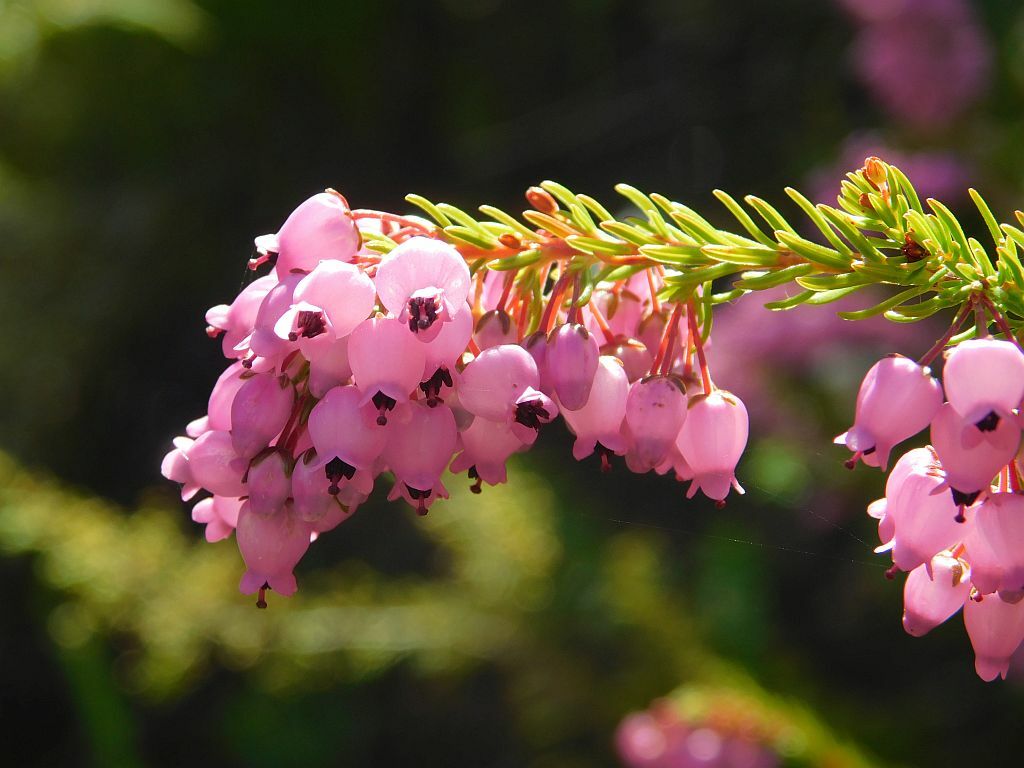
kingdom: Plantae
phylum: Tracheophyta
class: Magnoliopsida
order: Ericales
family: Ericaceae
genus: Erica
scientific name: Erica lateralis
